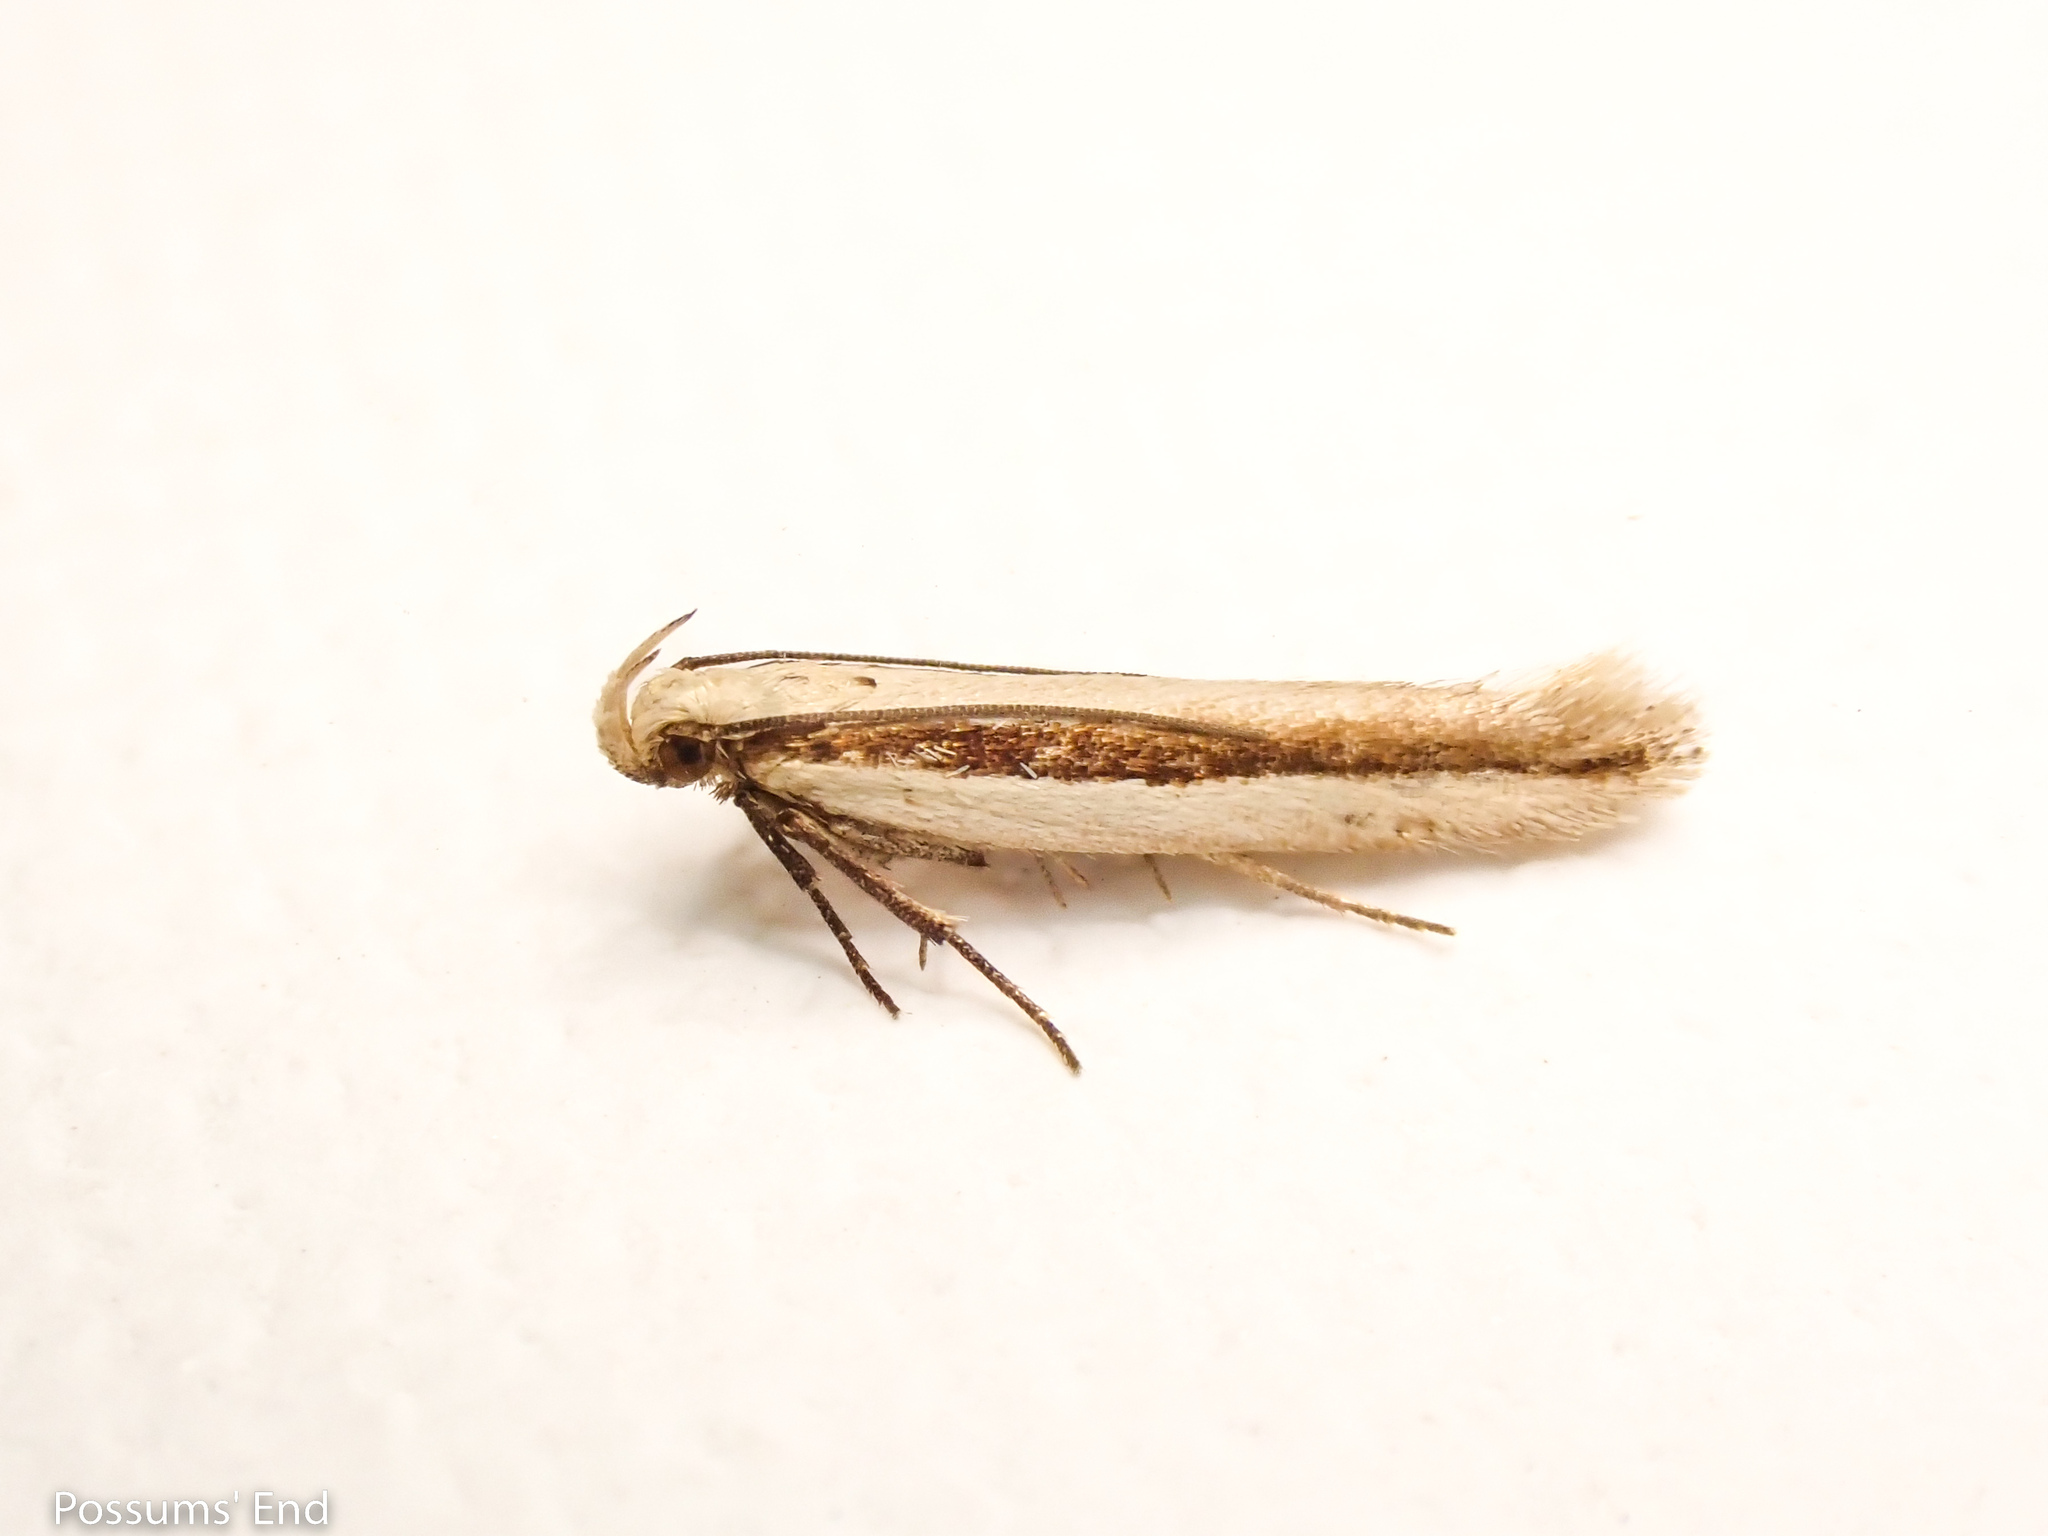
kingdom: Animalia
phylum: Arthropoda
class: Insecta
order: Lepidoptera
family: Gelechiidae
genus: Kiwaia
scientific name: Kiwaia monophragma
